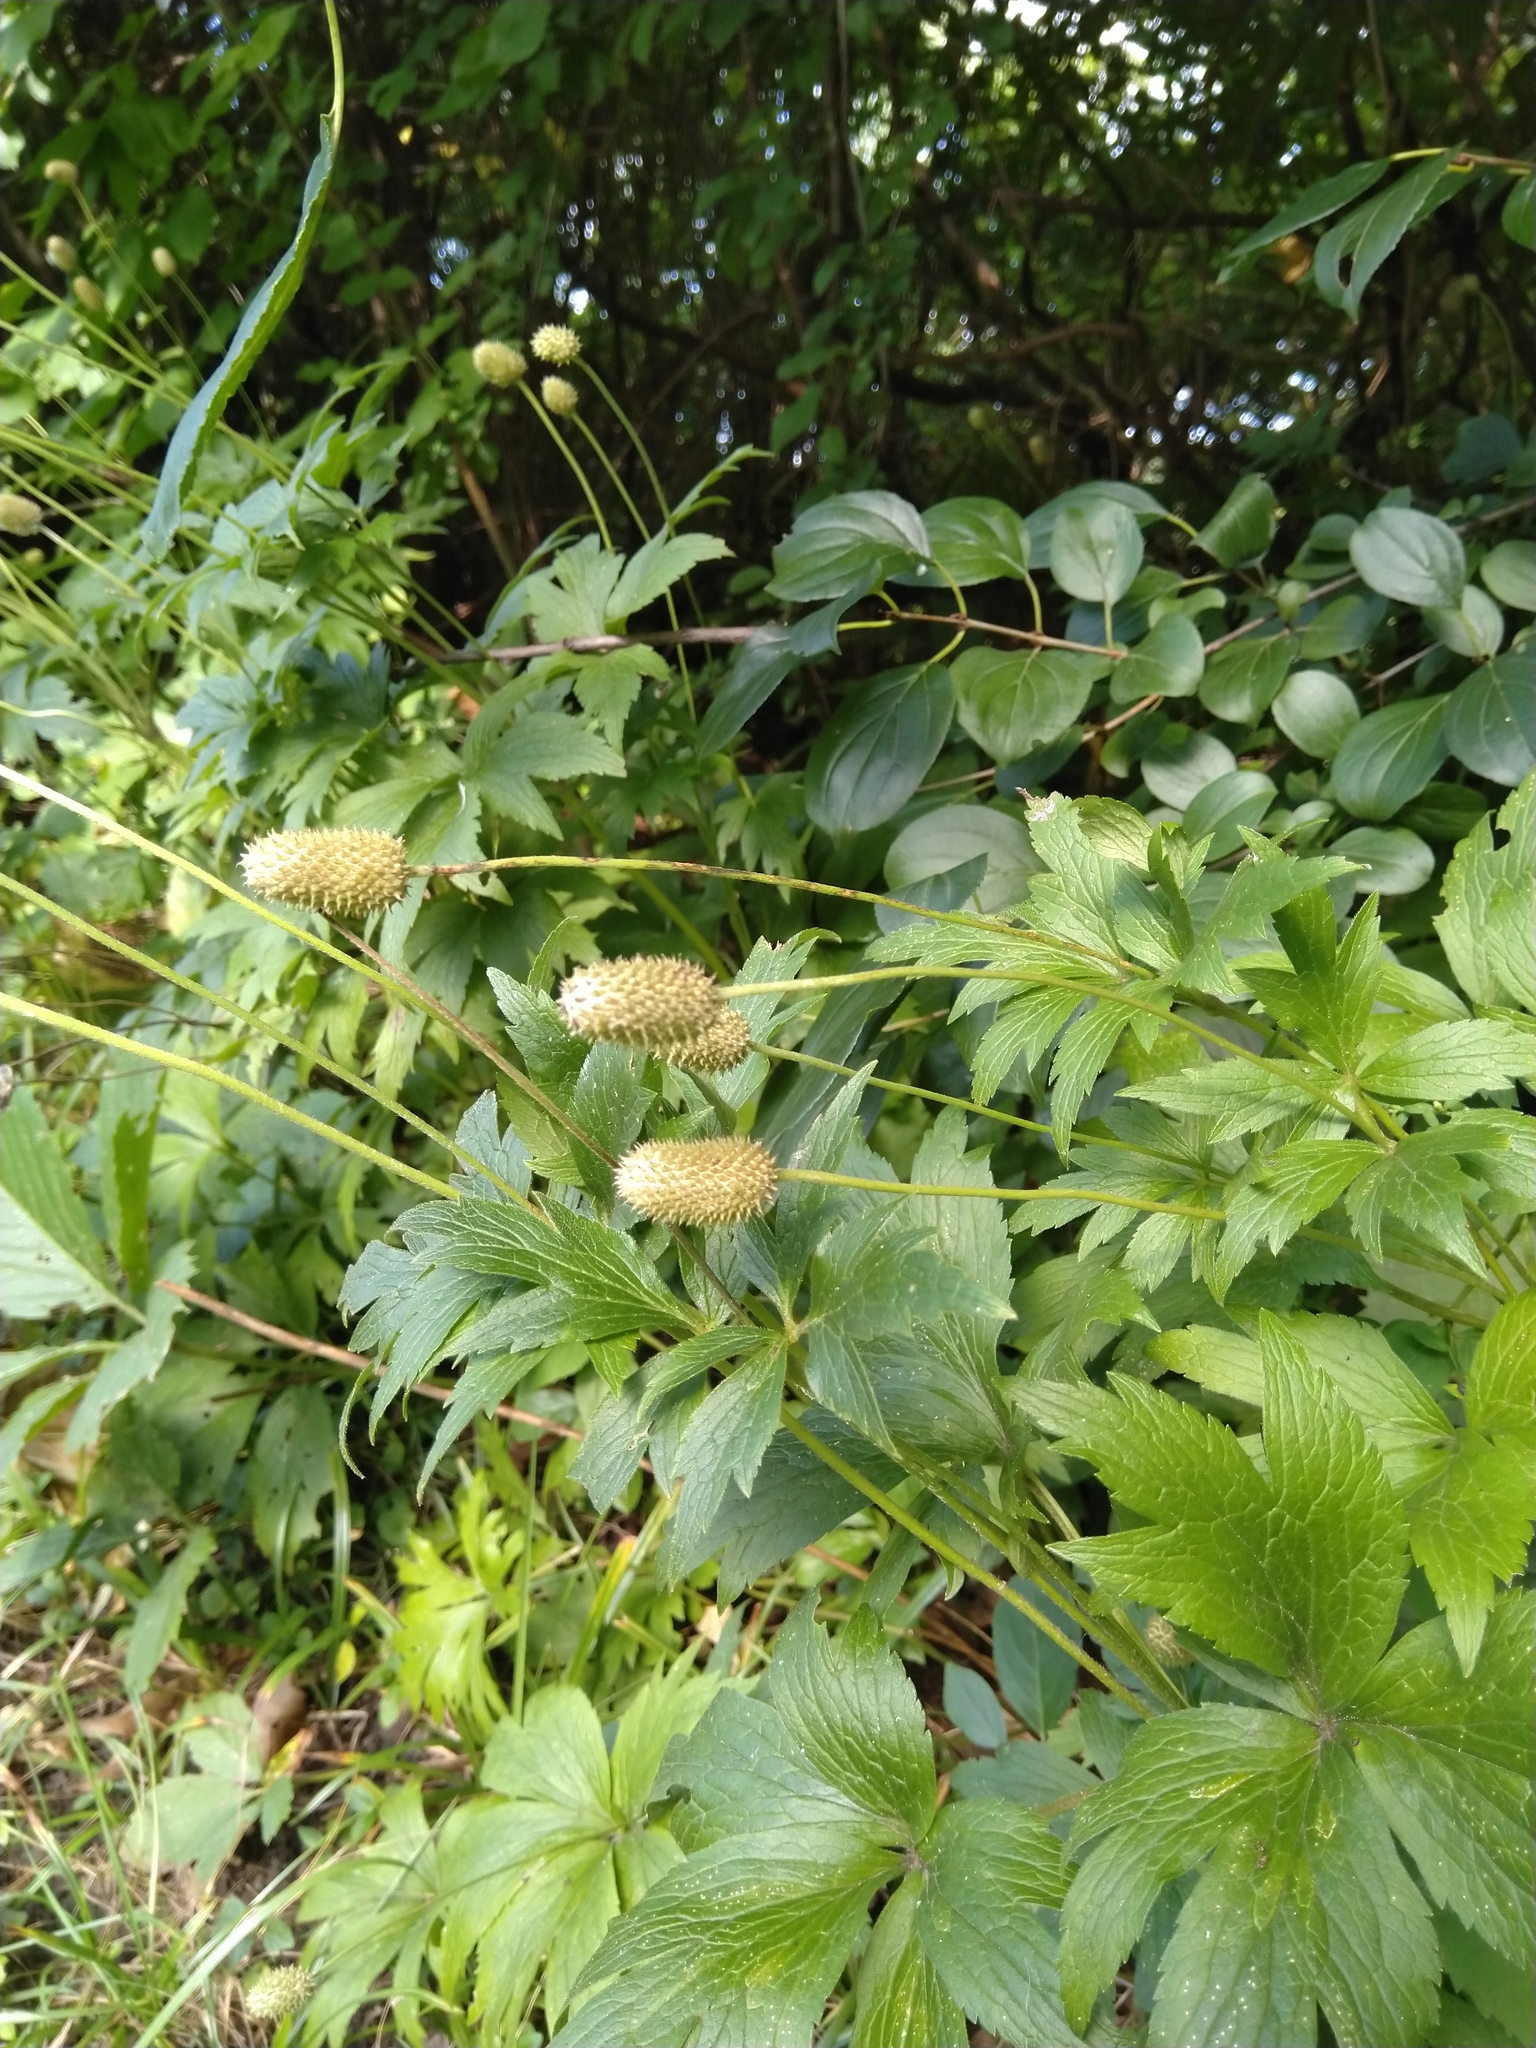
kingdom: Plantae
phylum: Tracheophyta
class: Magnoliopsida
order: Ranunculales
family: Ranunculaceae
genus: Anemone
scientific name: Anemone virginiana
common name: Tall anemone
